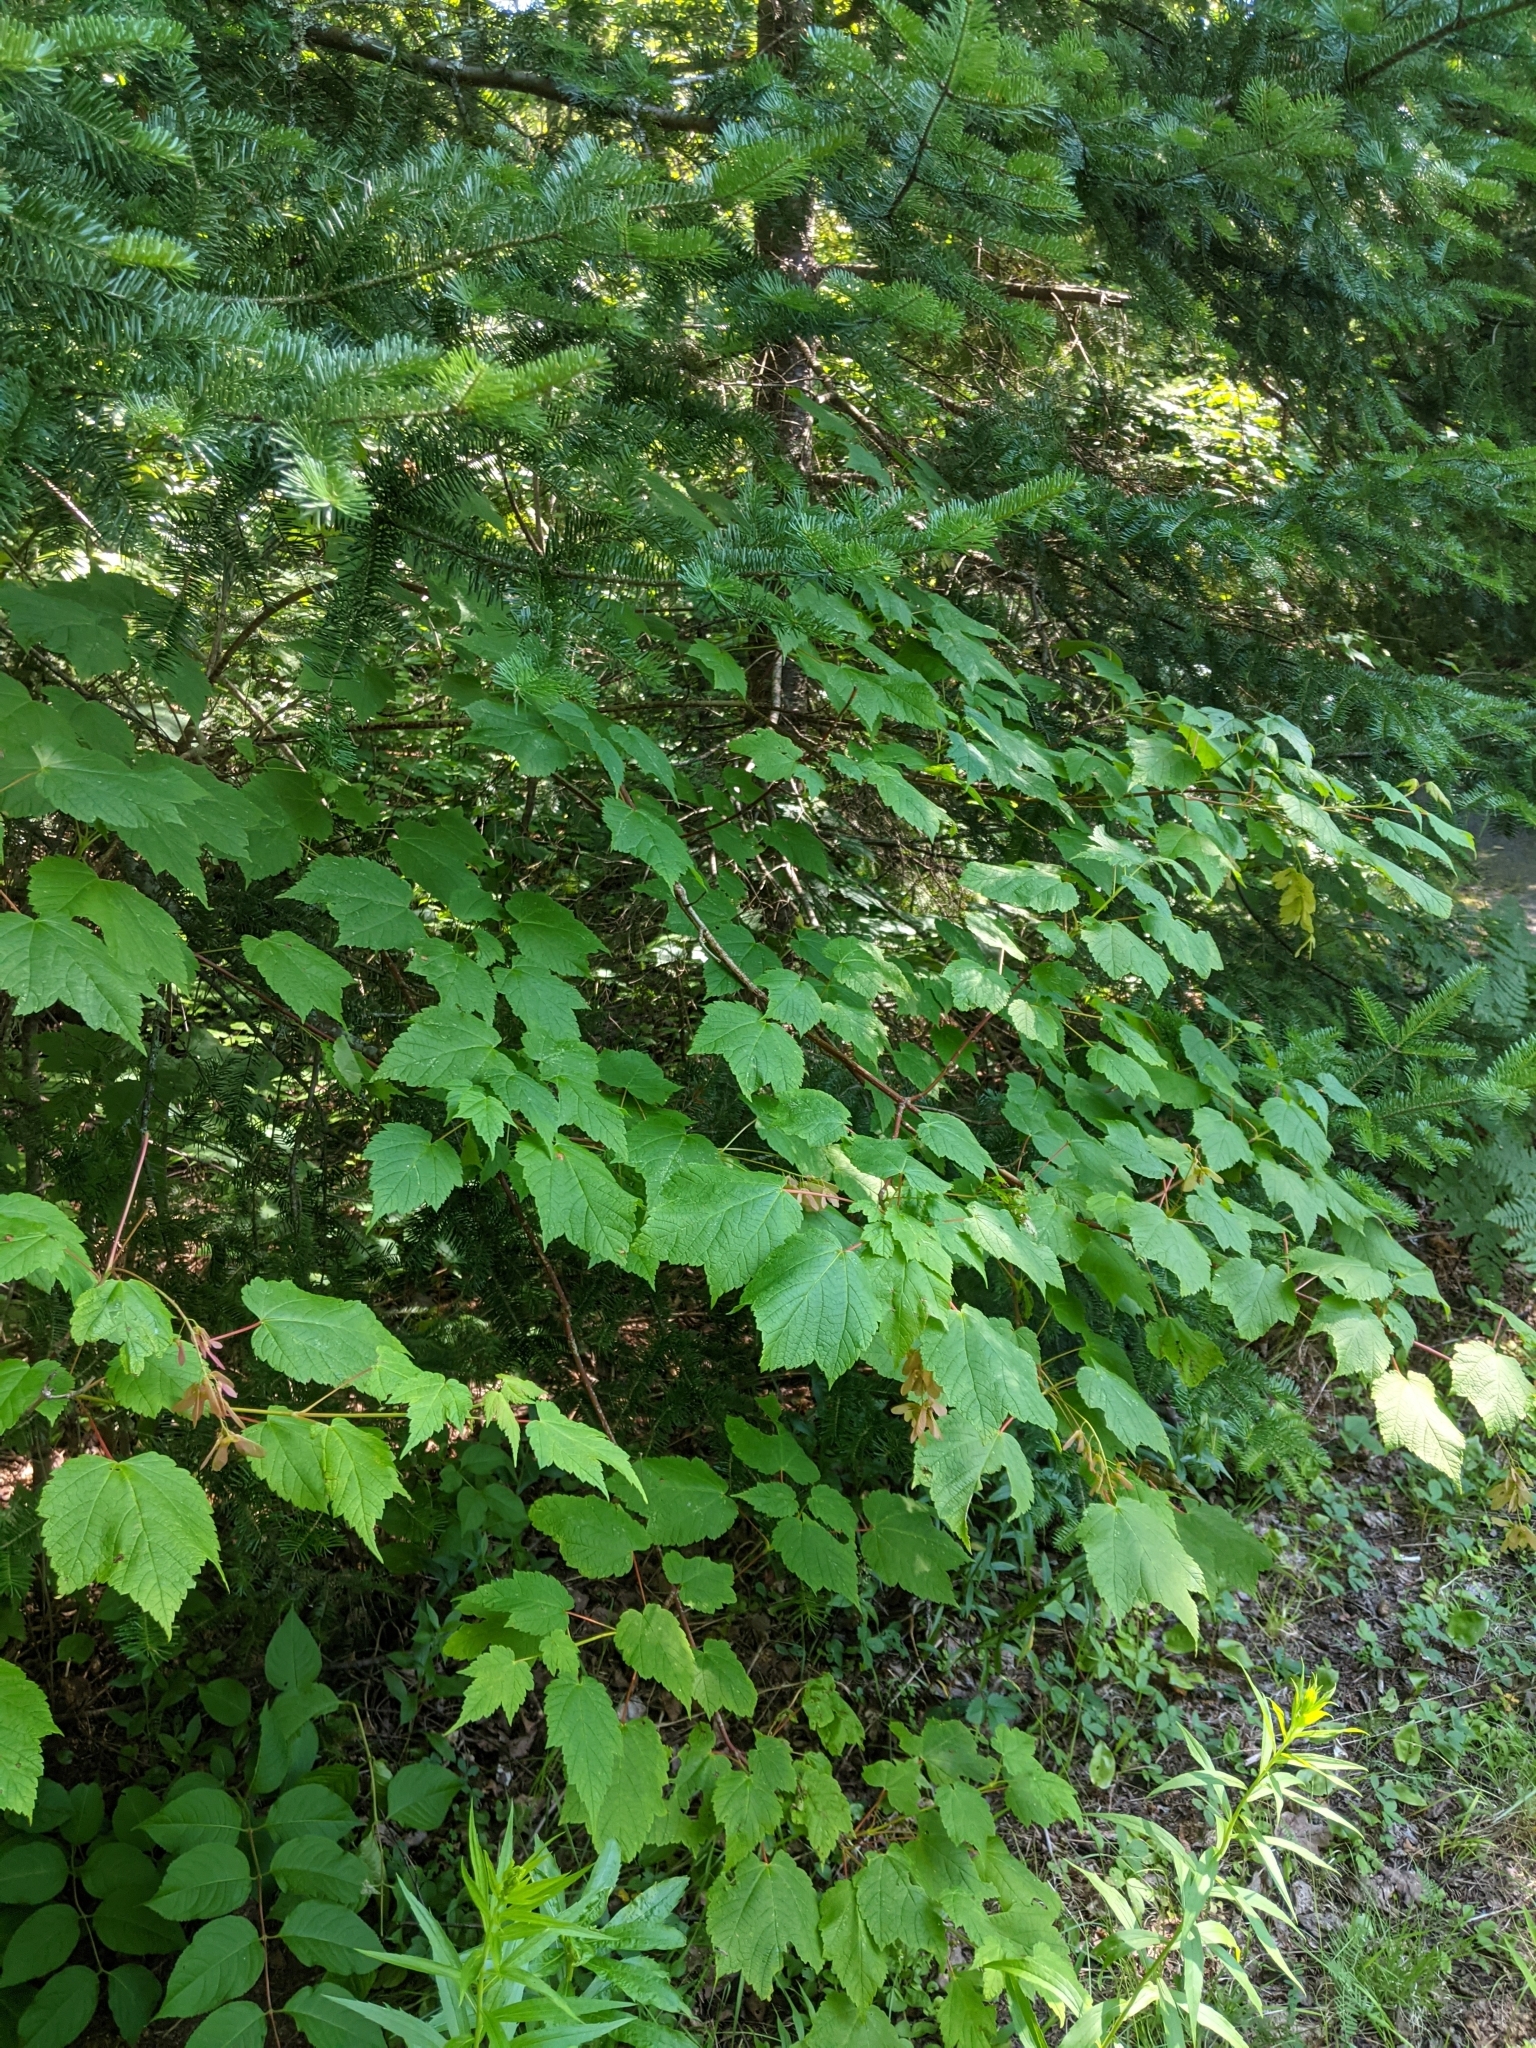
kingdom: Plantae
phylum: Tracheophyta
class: Magnoliopsida
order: Sapindales
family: Sapindaceae
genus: Acer
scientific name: Acer spicatum
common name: Mountain maple
